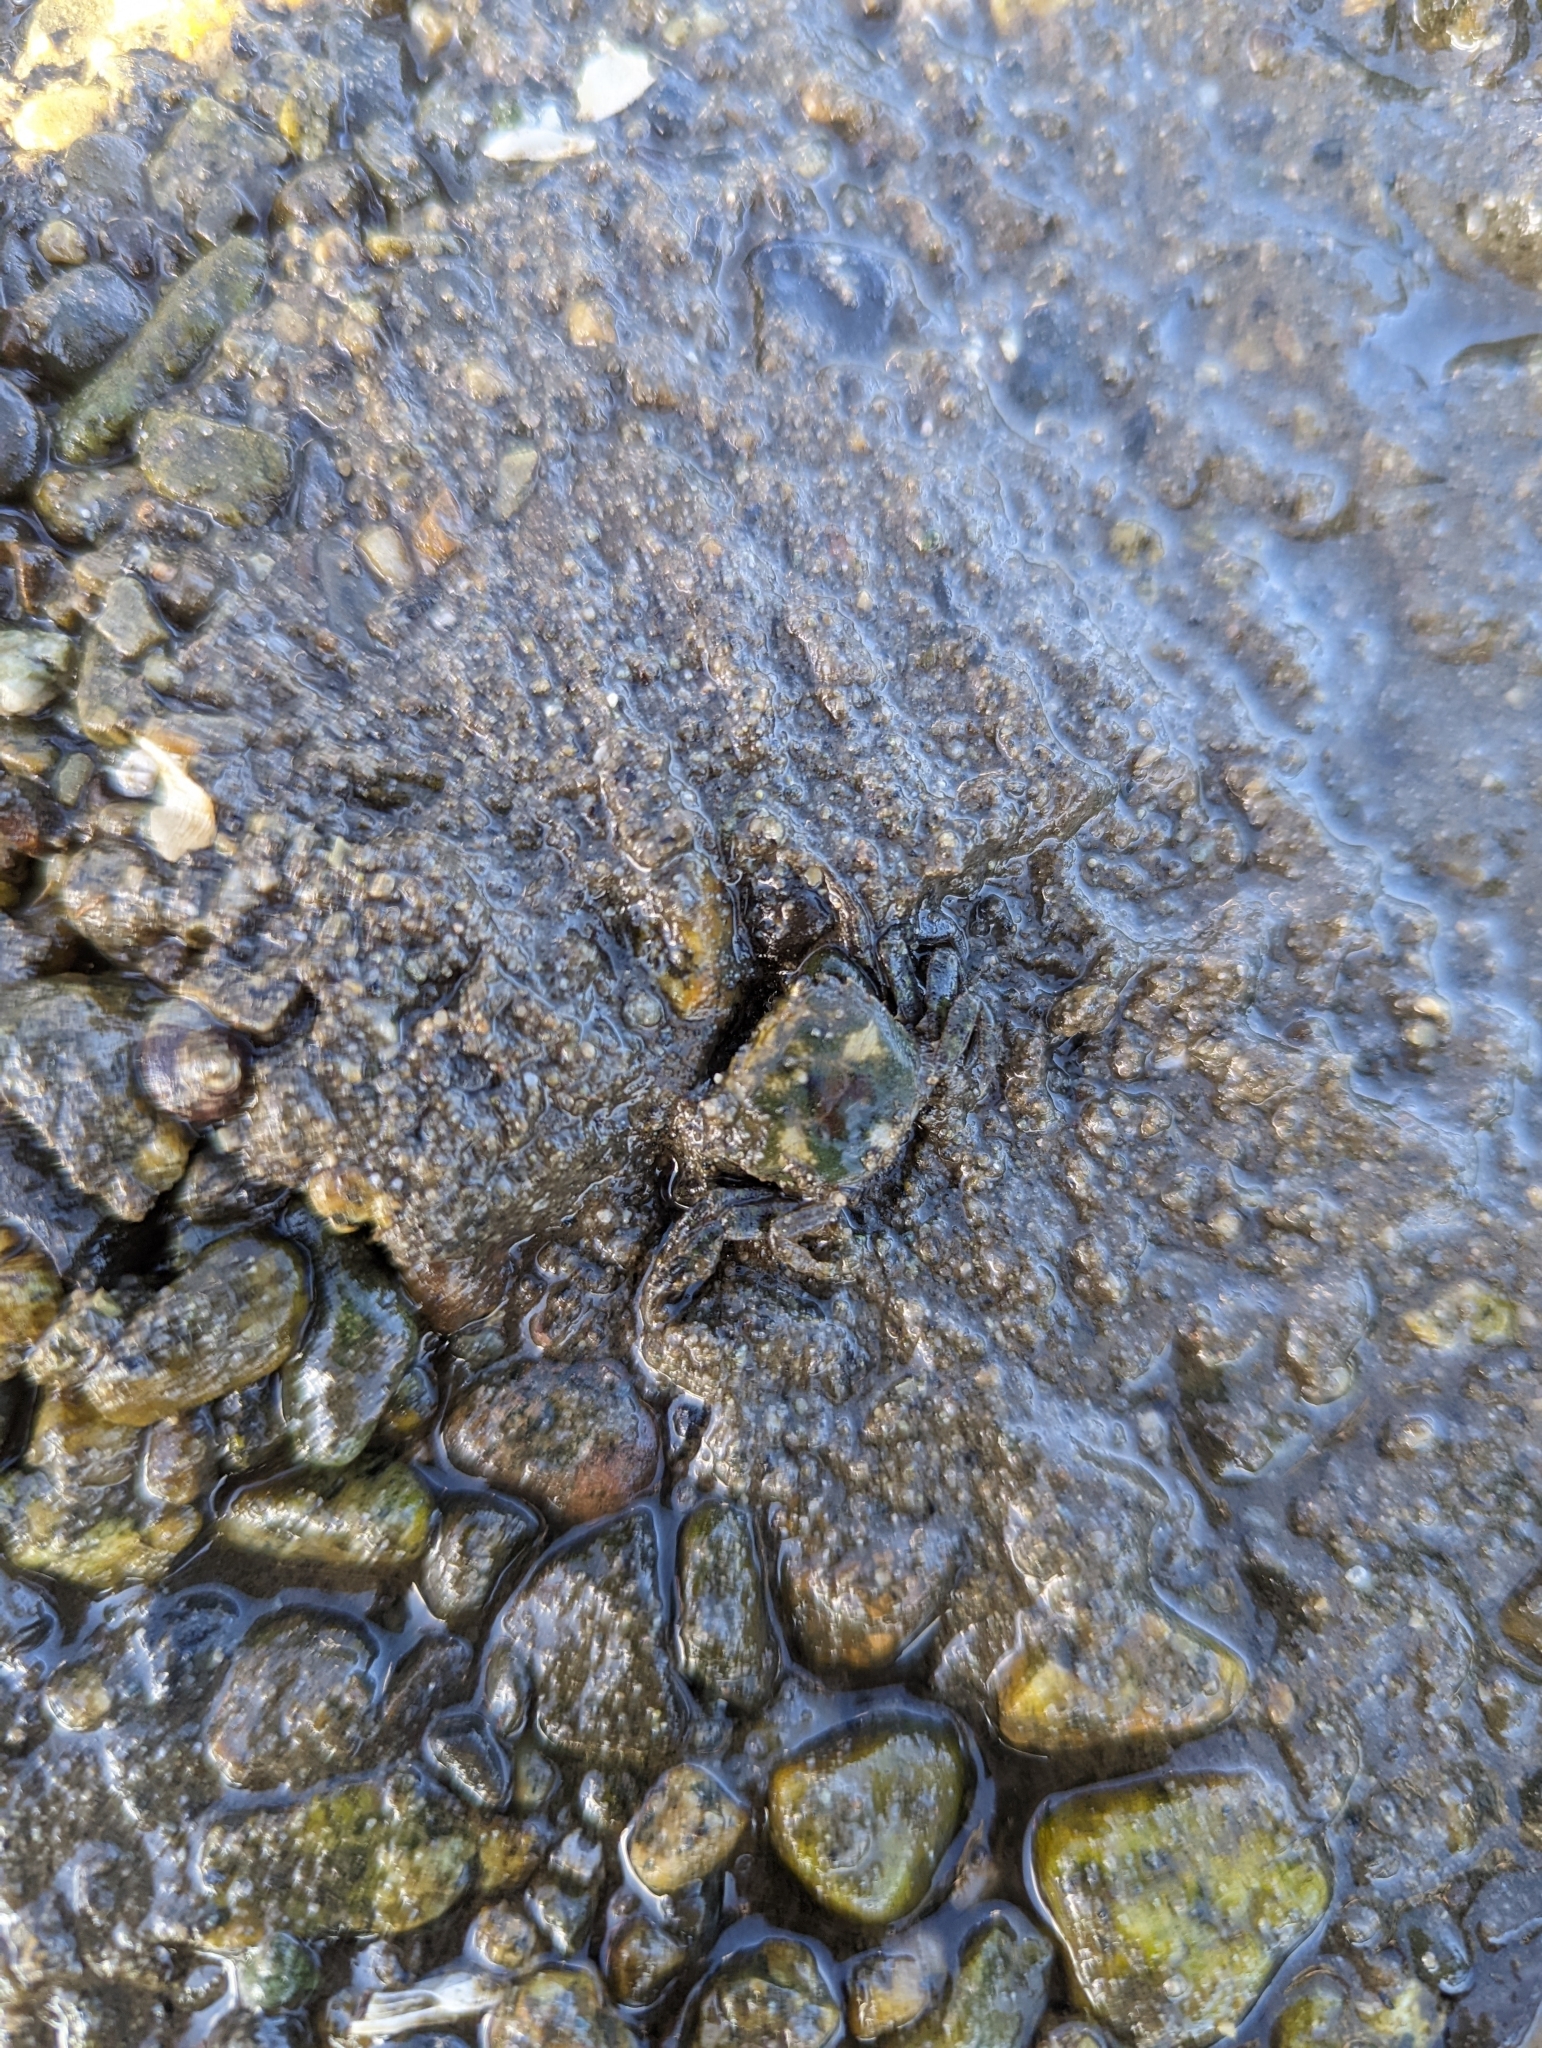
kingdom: Animalia
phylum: Arthropoda
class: Malacostraca
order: Decapoda
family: Varunidae
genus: Hemigrapsus
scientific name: Hemigrapsus oregonensis
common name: Yellow shore crab
